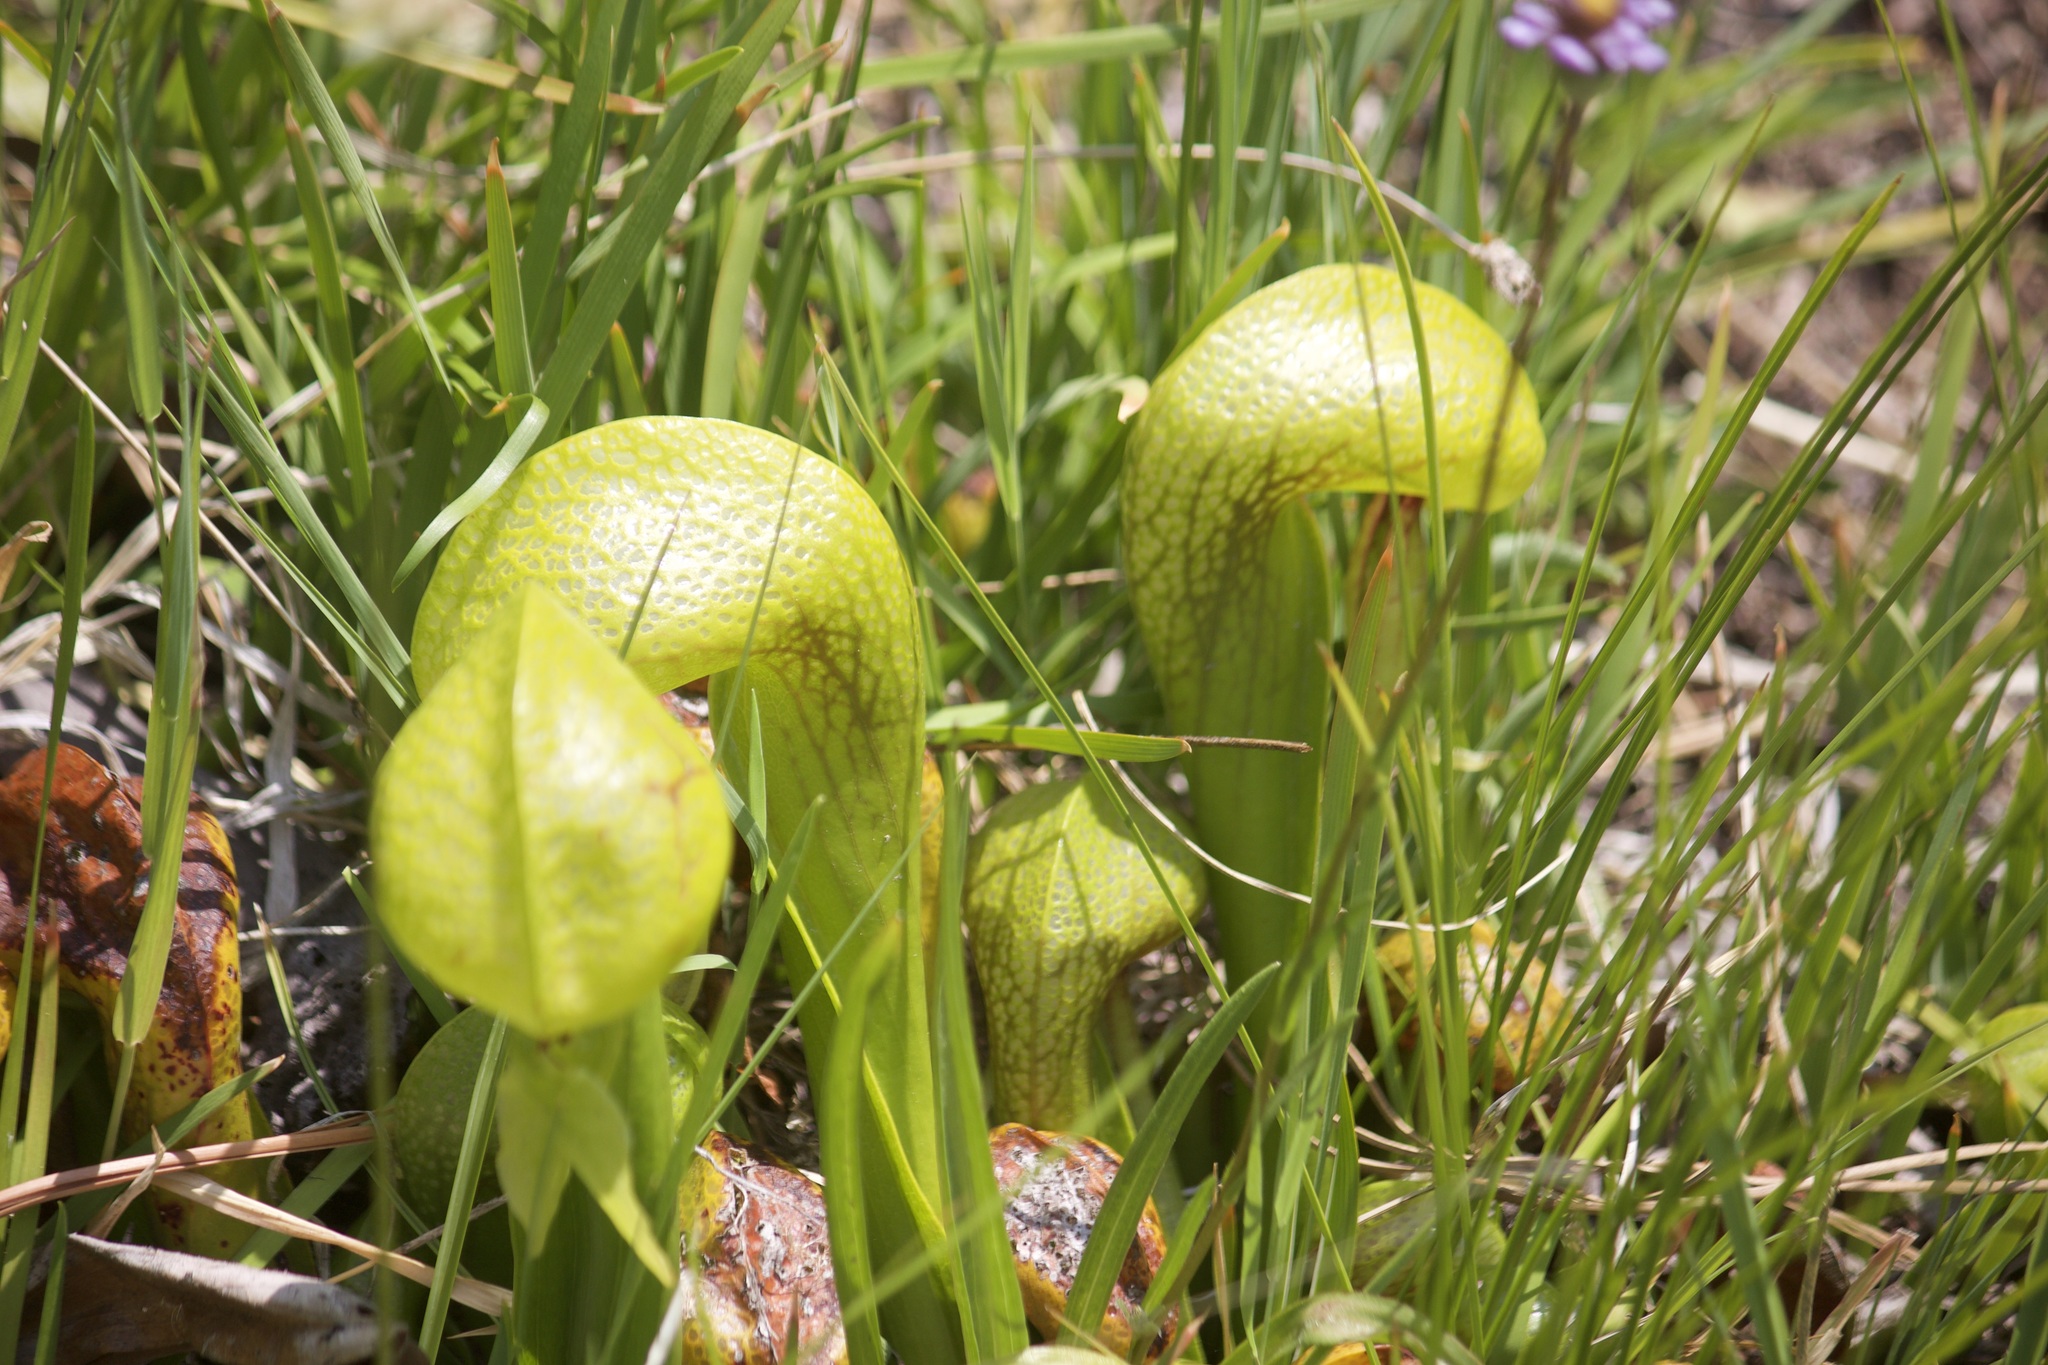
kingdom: Plantae
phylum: Tracheophyta
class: Magnoliopsida
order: Ericales
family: Sarraceniaceae
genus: Darlingtonia
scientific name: Darlingtonia californica
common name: California pitcher plant
